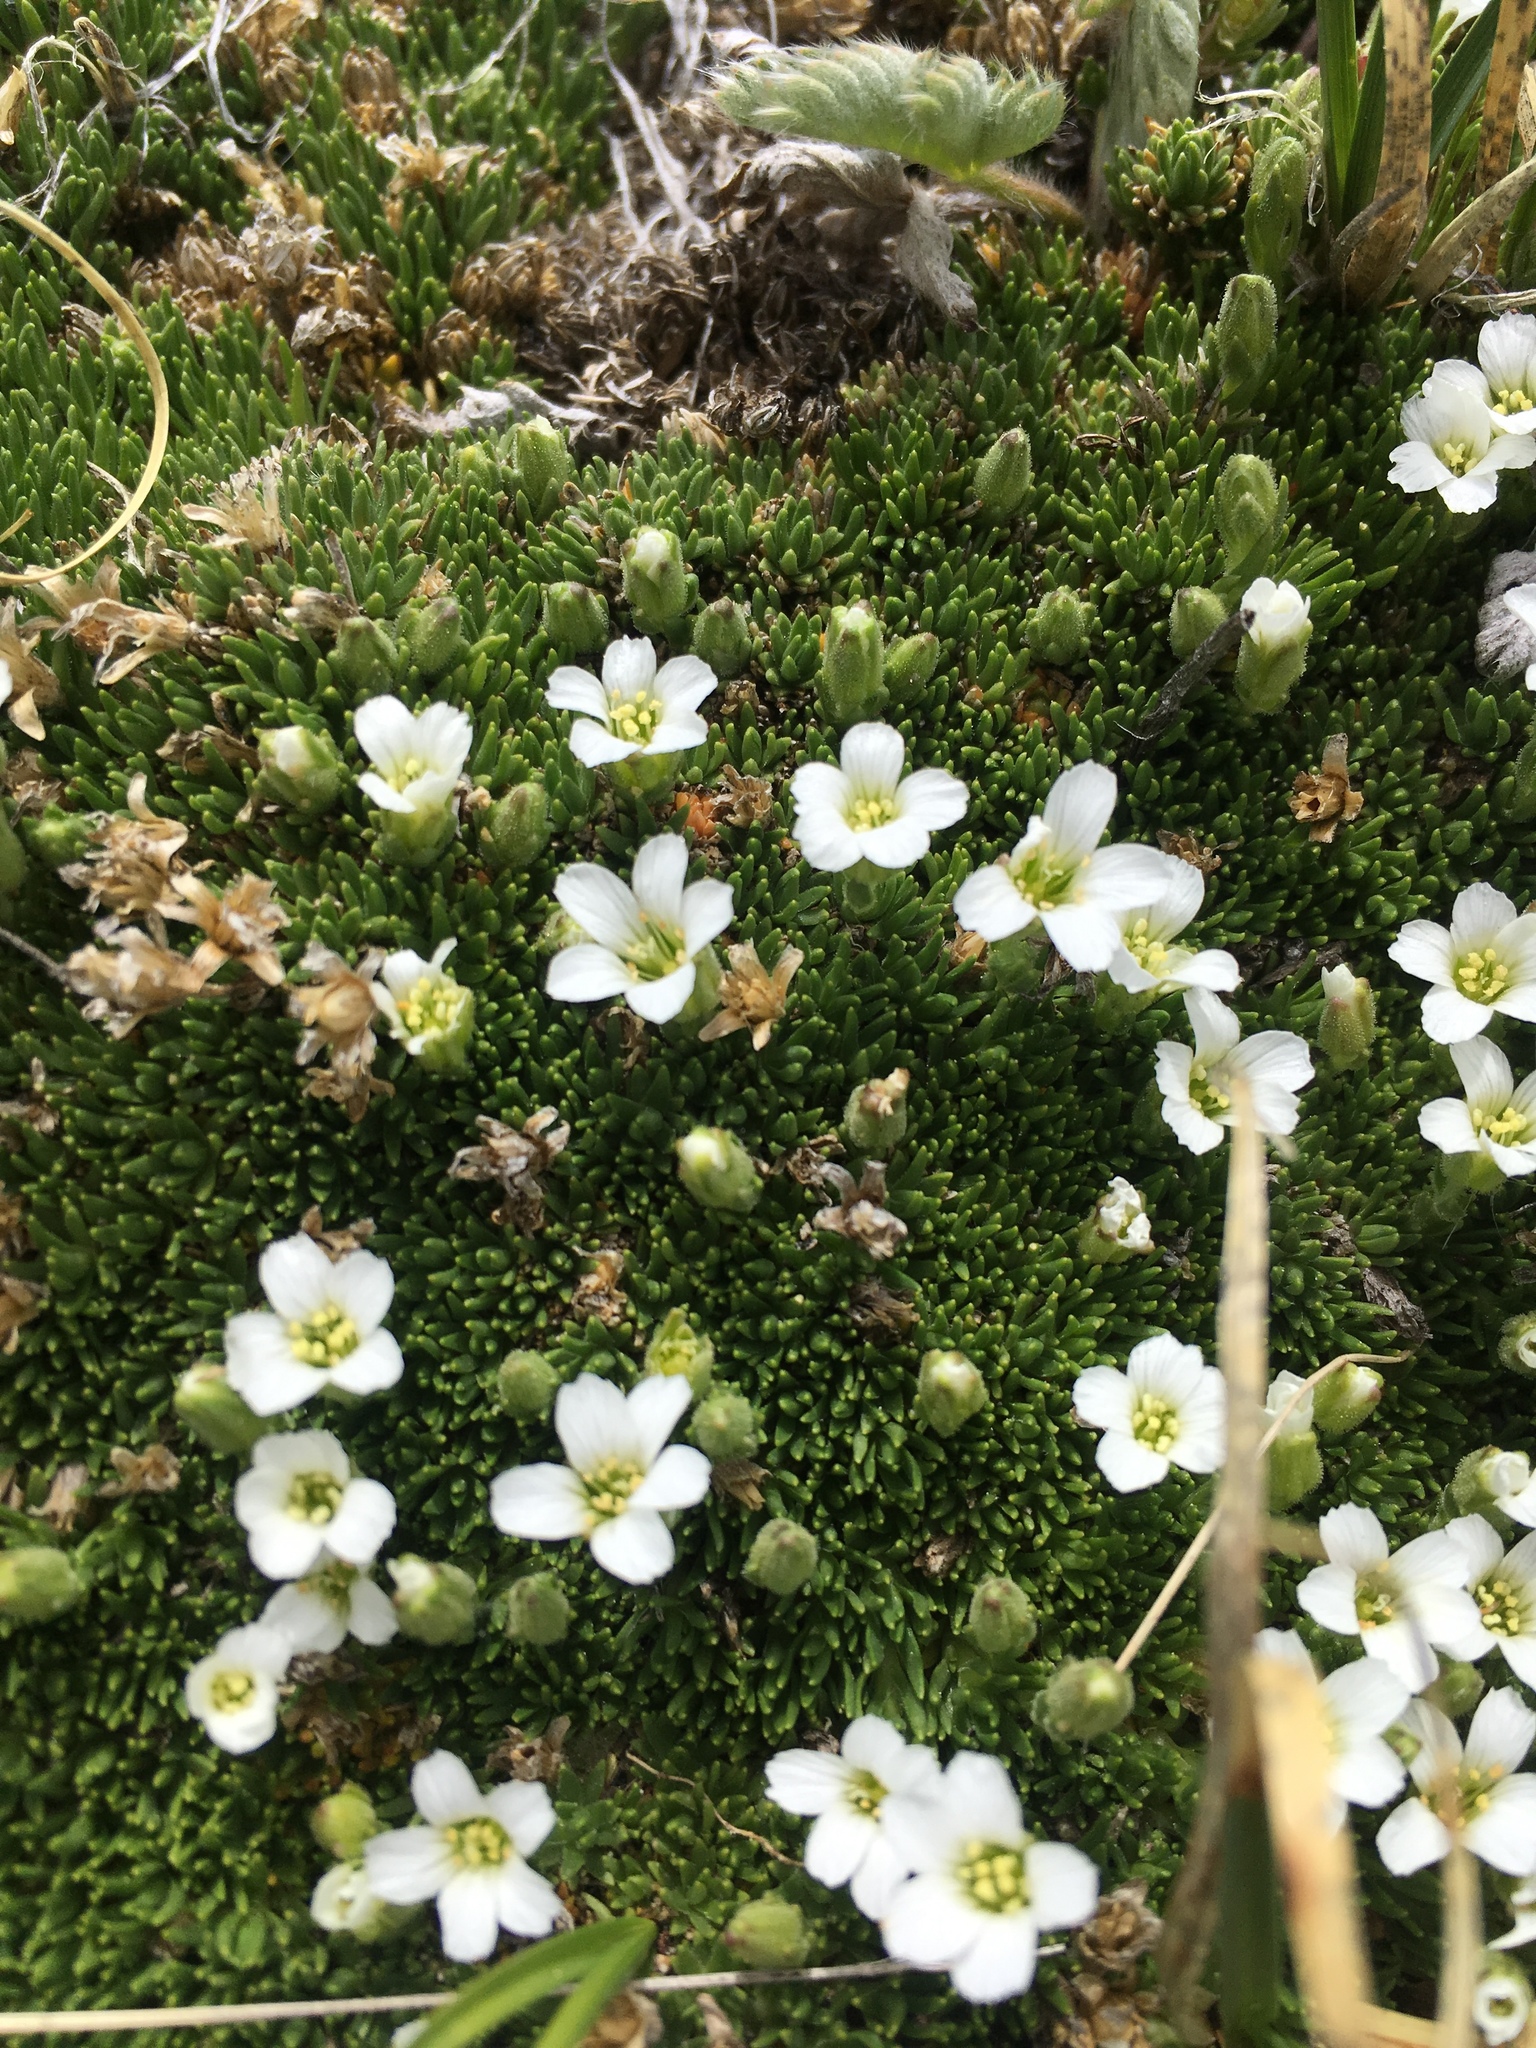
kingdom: Plantae
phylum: Tracheophyta
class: Magnoliopsida
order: Caryophyllales
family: Caryophyllaceae
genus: Cherleria
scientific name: Cherleria obtusiloba
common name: Alpine stitchwort
